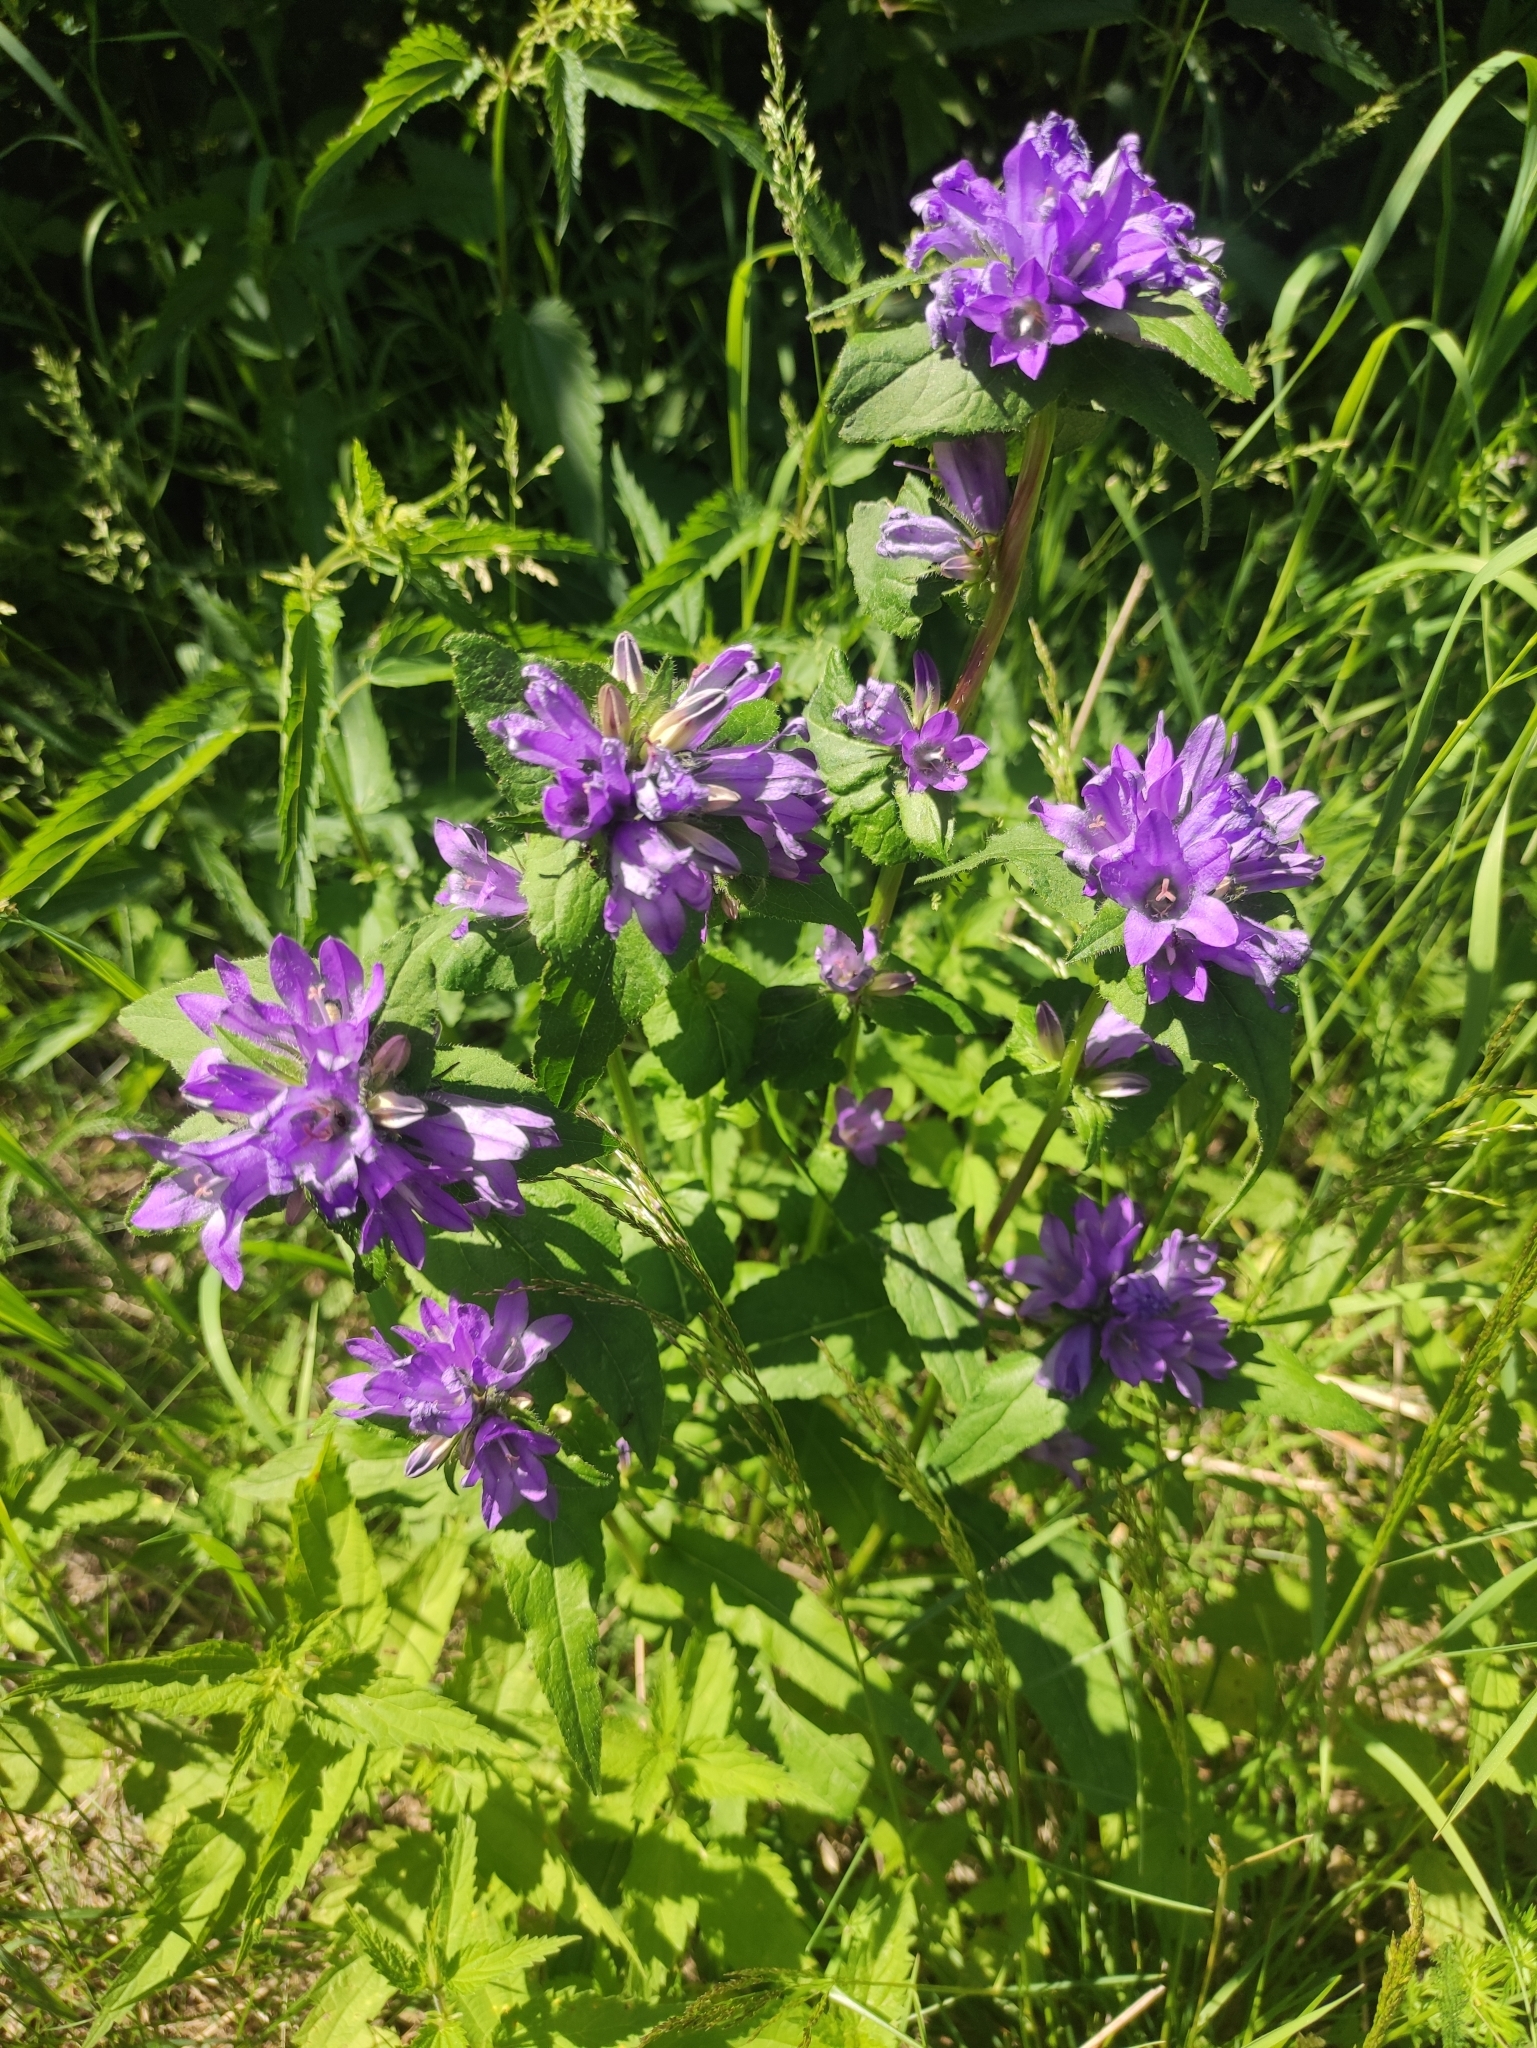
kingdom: Plantae
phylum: Tracheophyta
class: Magnoliopsida
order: Asterales
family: Campanulaceae
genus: Campanula
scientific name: Campanula glomerata
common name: Clustered bellflower
